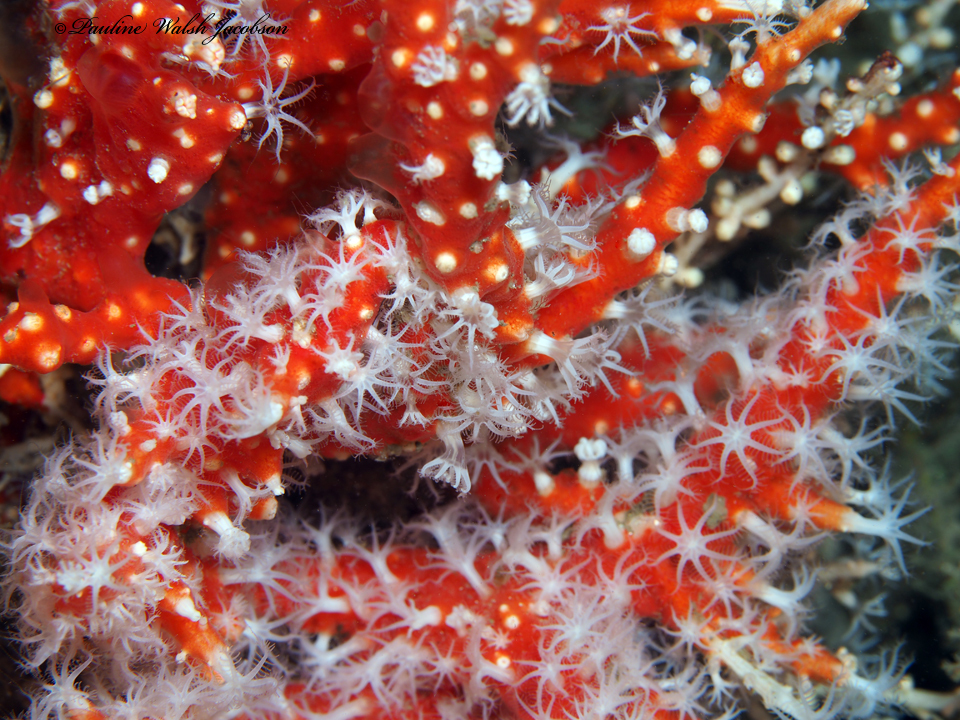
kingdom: Animalia
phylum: Cnidaria
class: Anthozoa
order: Malacalcyonacea
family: Carijoidae
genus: Carijoa
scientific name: Carijoa riisei
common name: Snowflake coral
